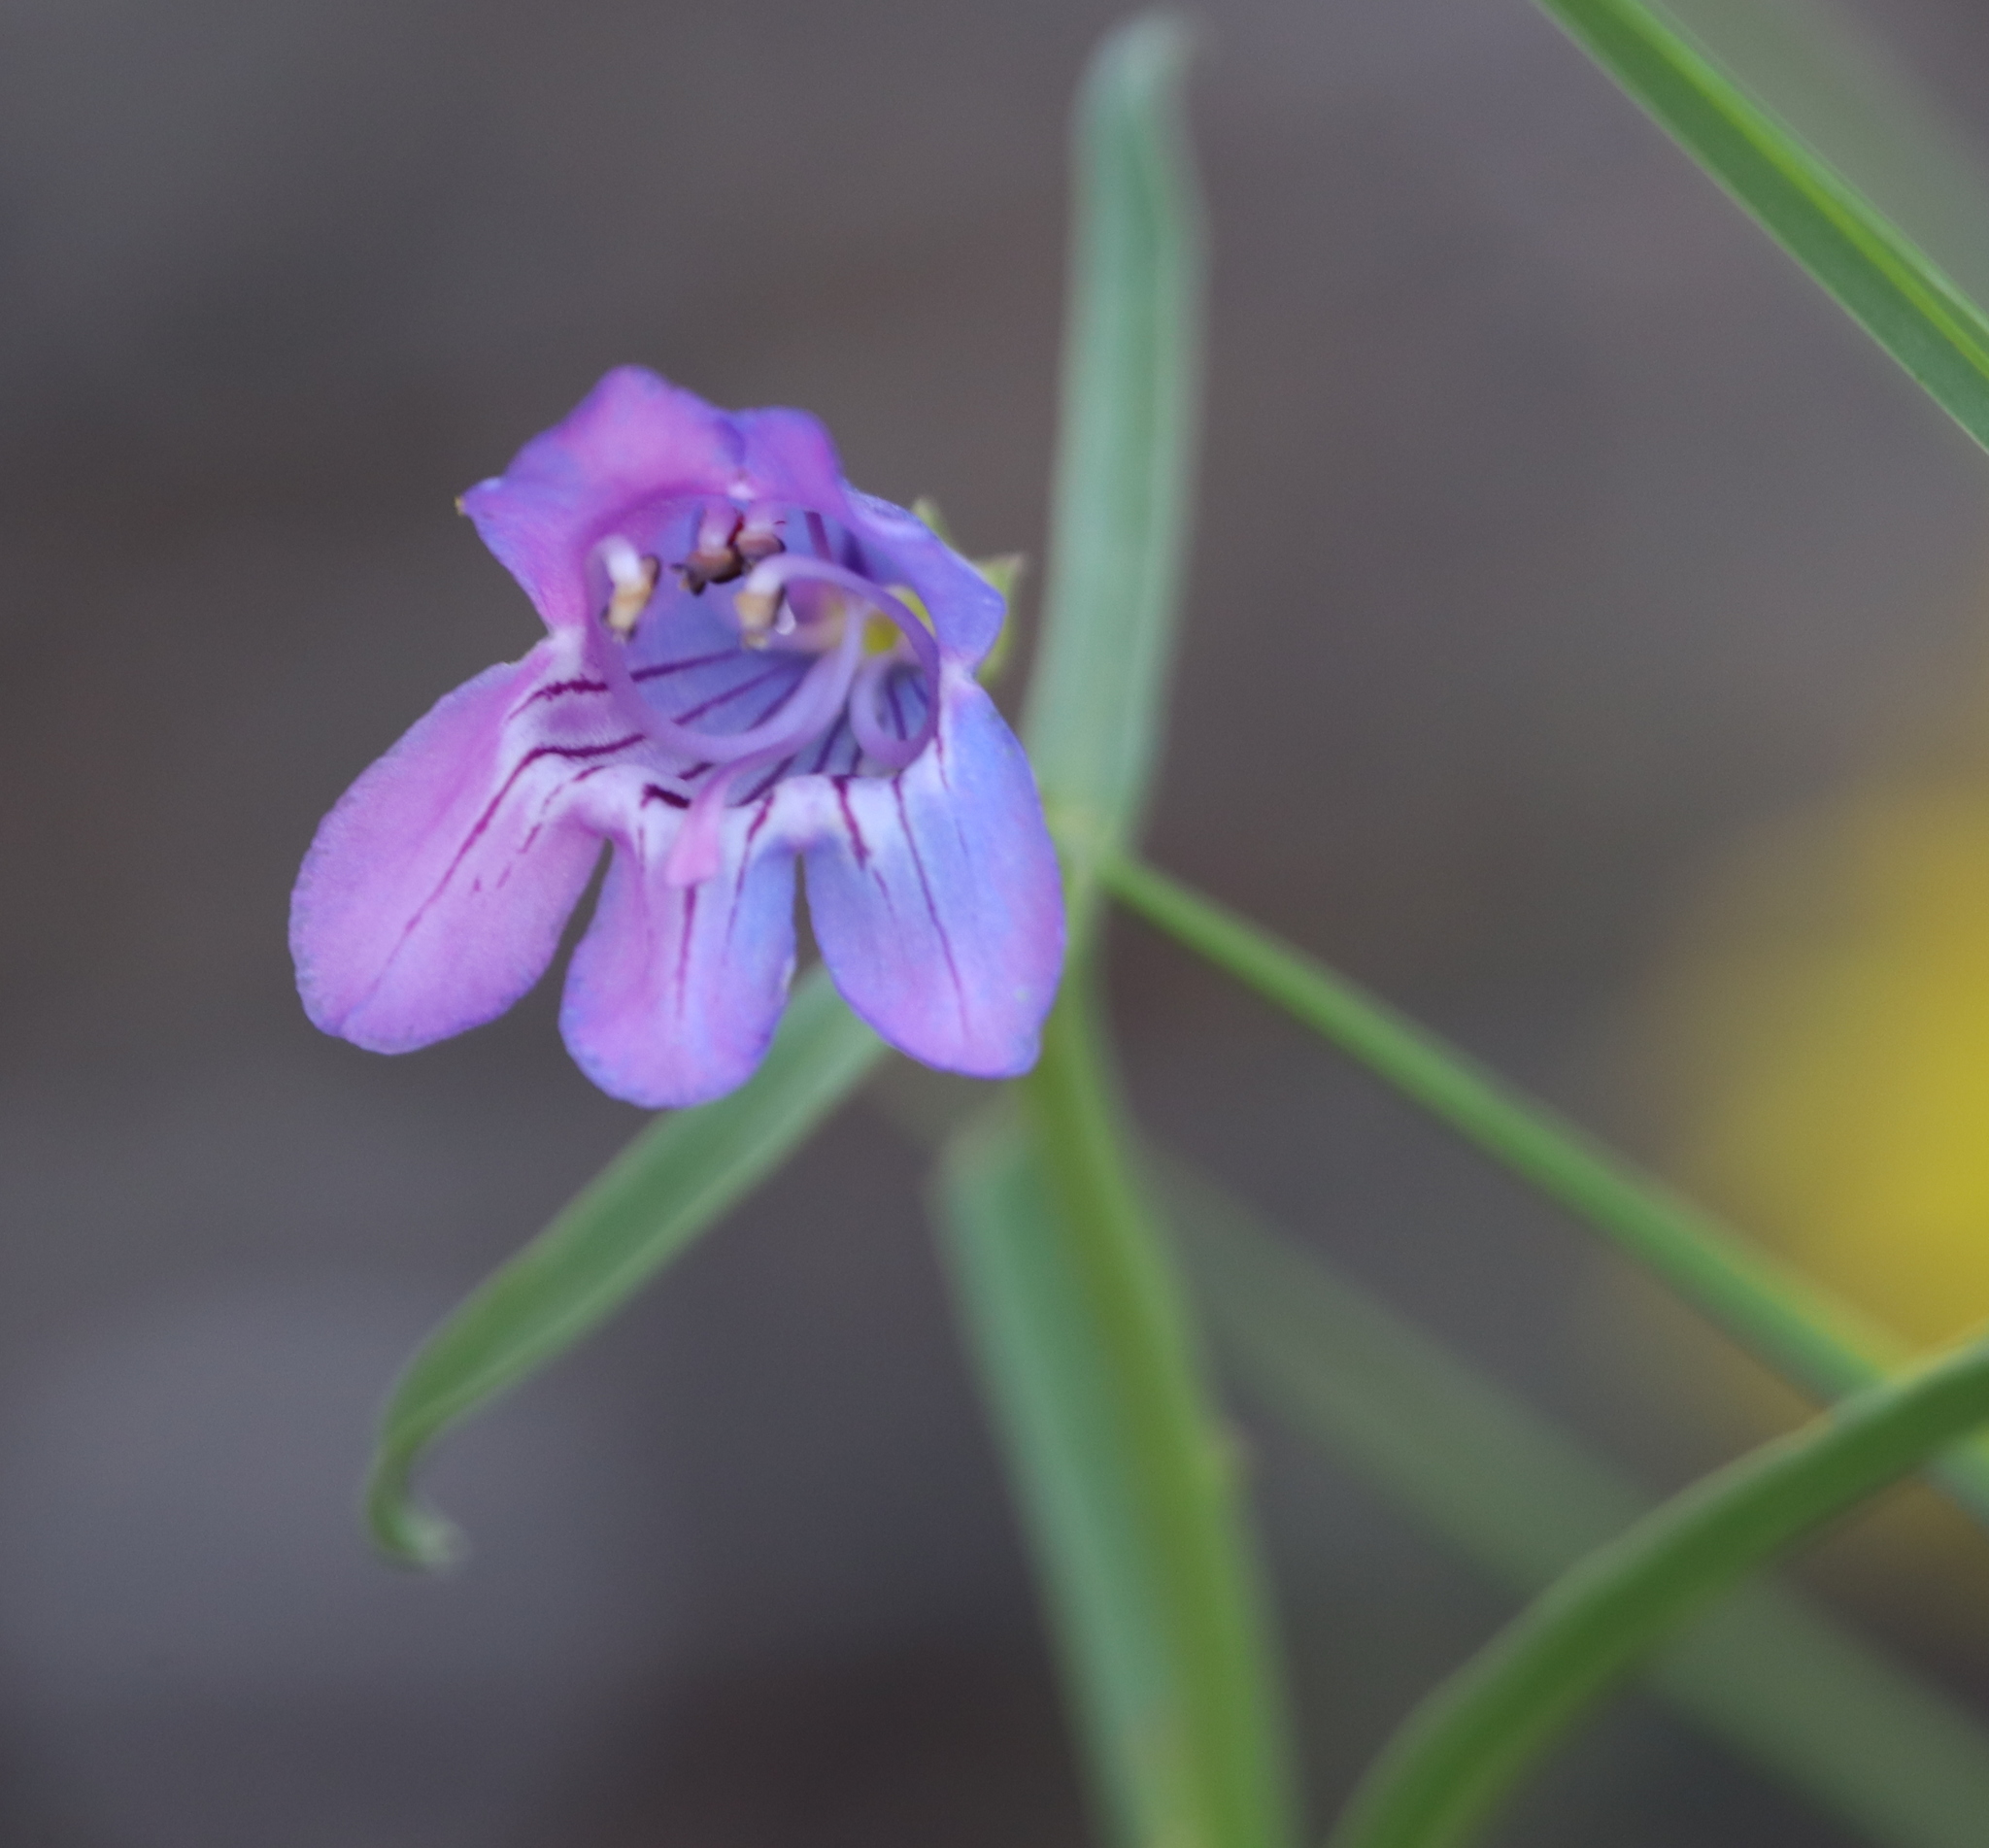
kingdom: Plantae
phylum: Tracheophyta
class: Magnoliopsida
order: Lamiales
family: Plantaginaceae
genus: Penstemon
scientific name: Penstemon virgatus
